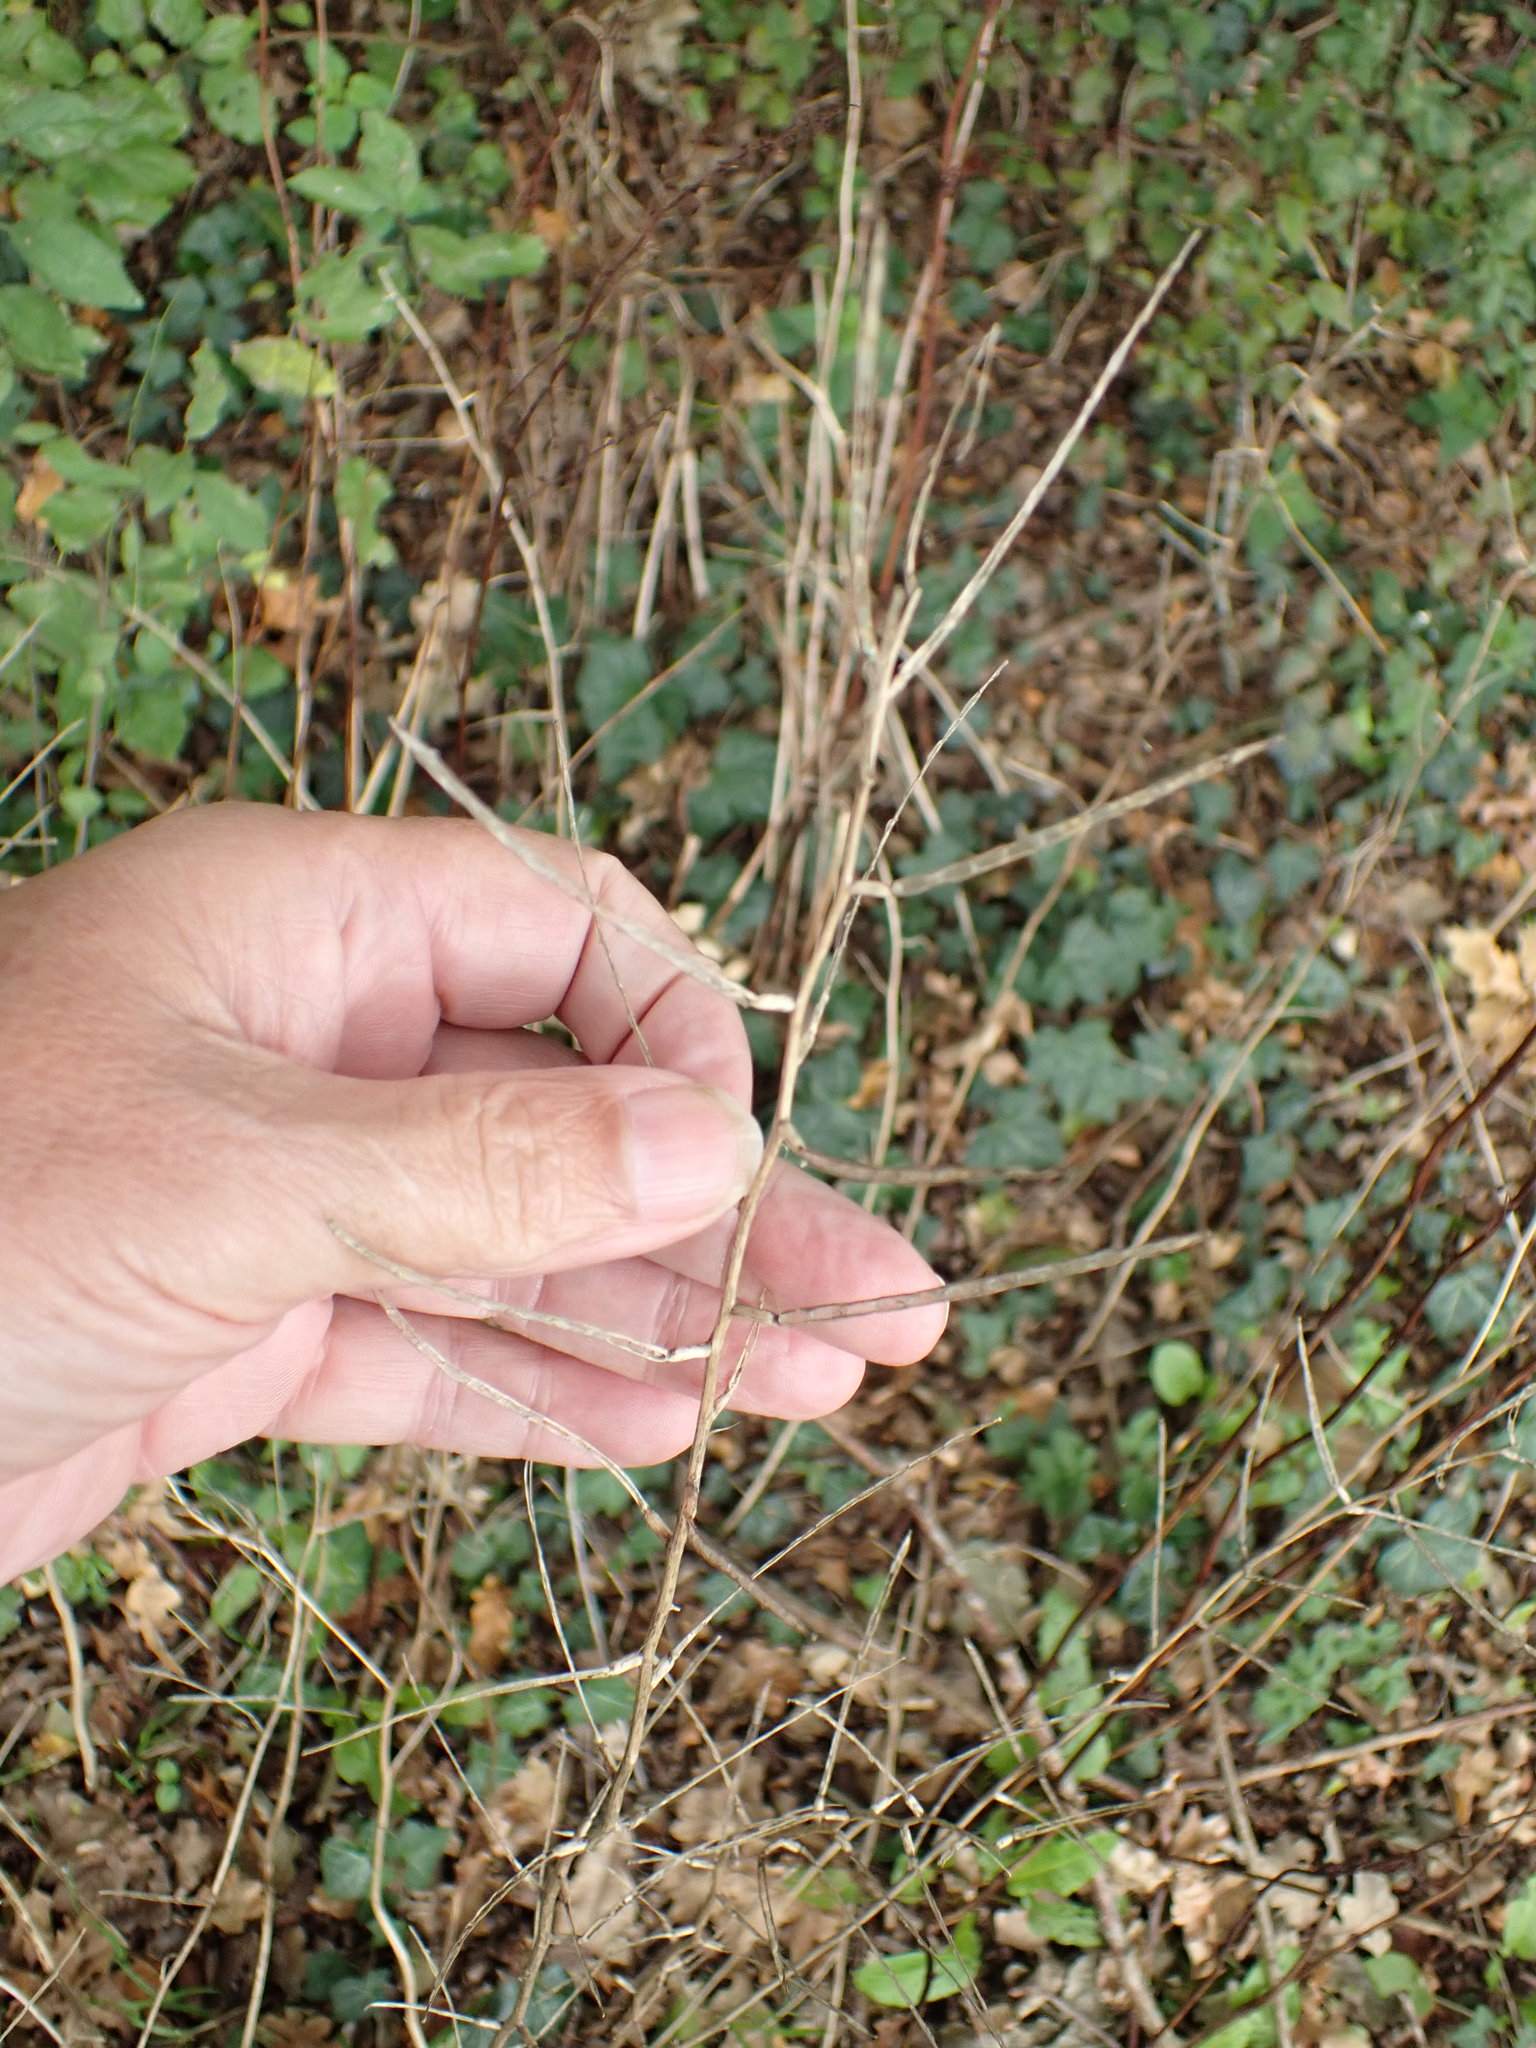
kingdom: Plantae
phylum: Tracheophyta
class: Magnoliopsida
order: Brassicales
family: Brassicaceae
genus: Alliaria
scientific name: Alliaria petiolata
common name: Garlic mustard
